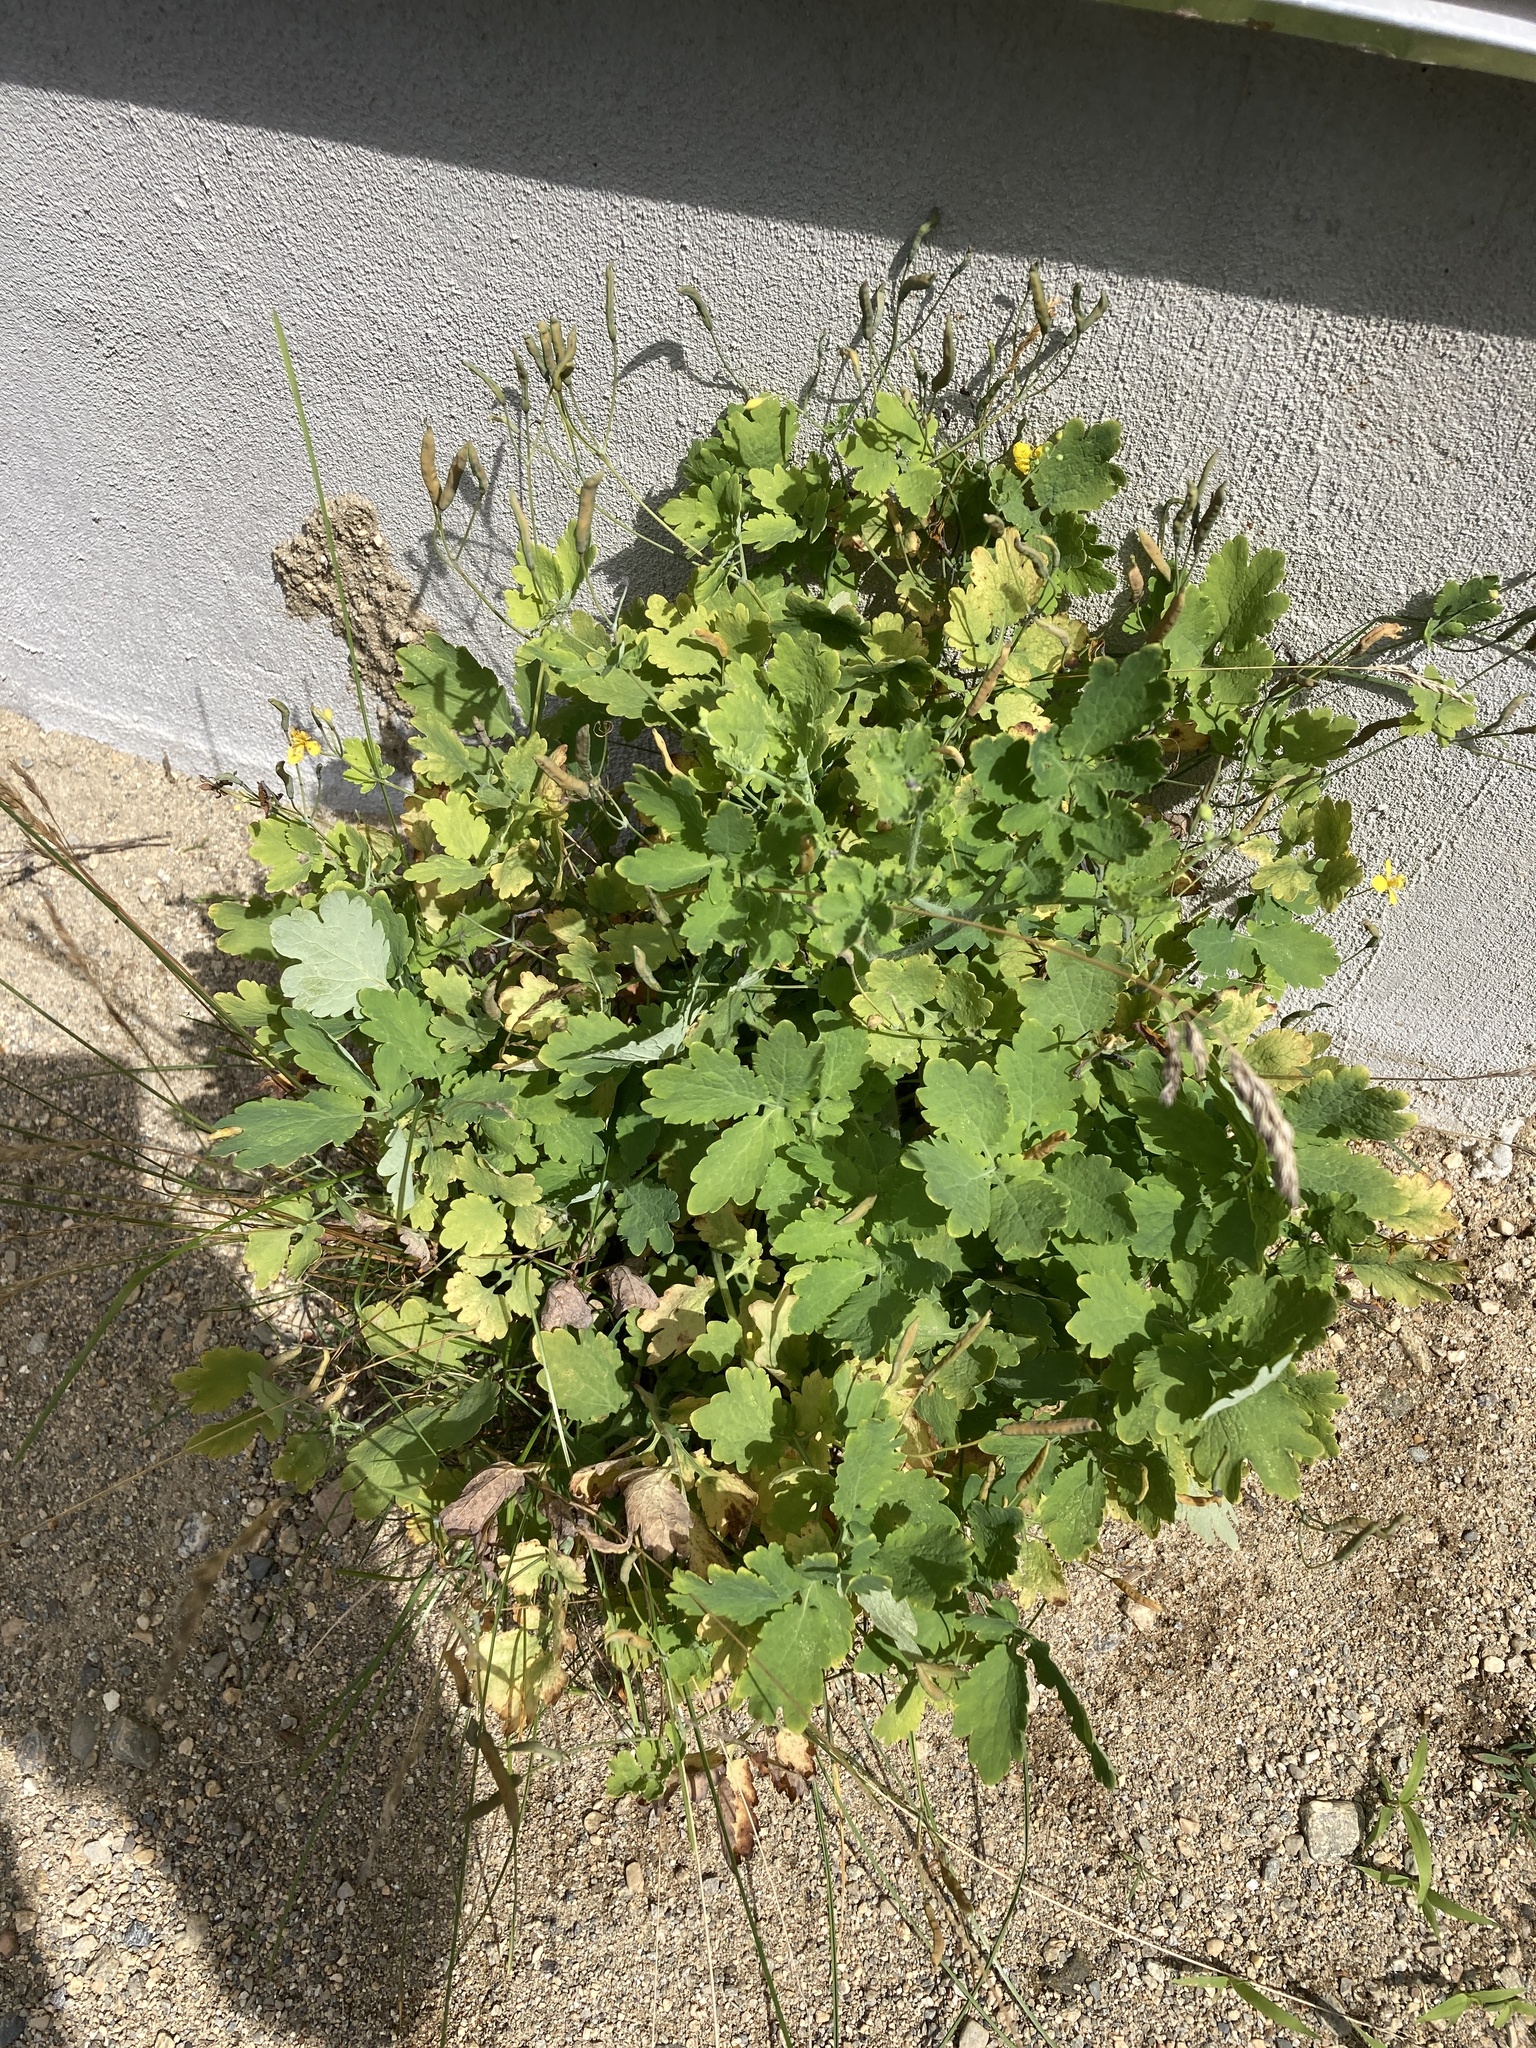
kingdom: Plantae
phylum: Tracheophyta
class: Magnoliopsida
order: Ranunculales
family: Papaveraceae
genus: Chelidonium
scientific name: Chelidonium majus
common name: Greater celandine
